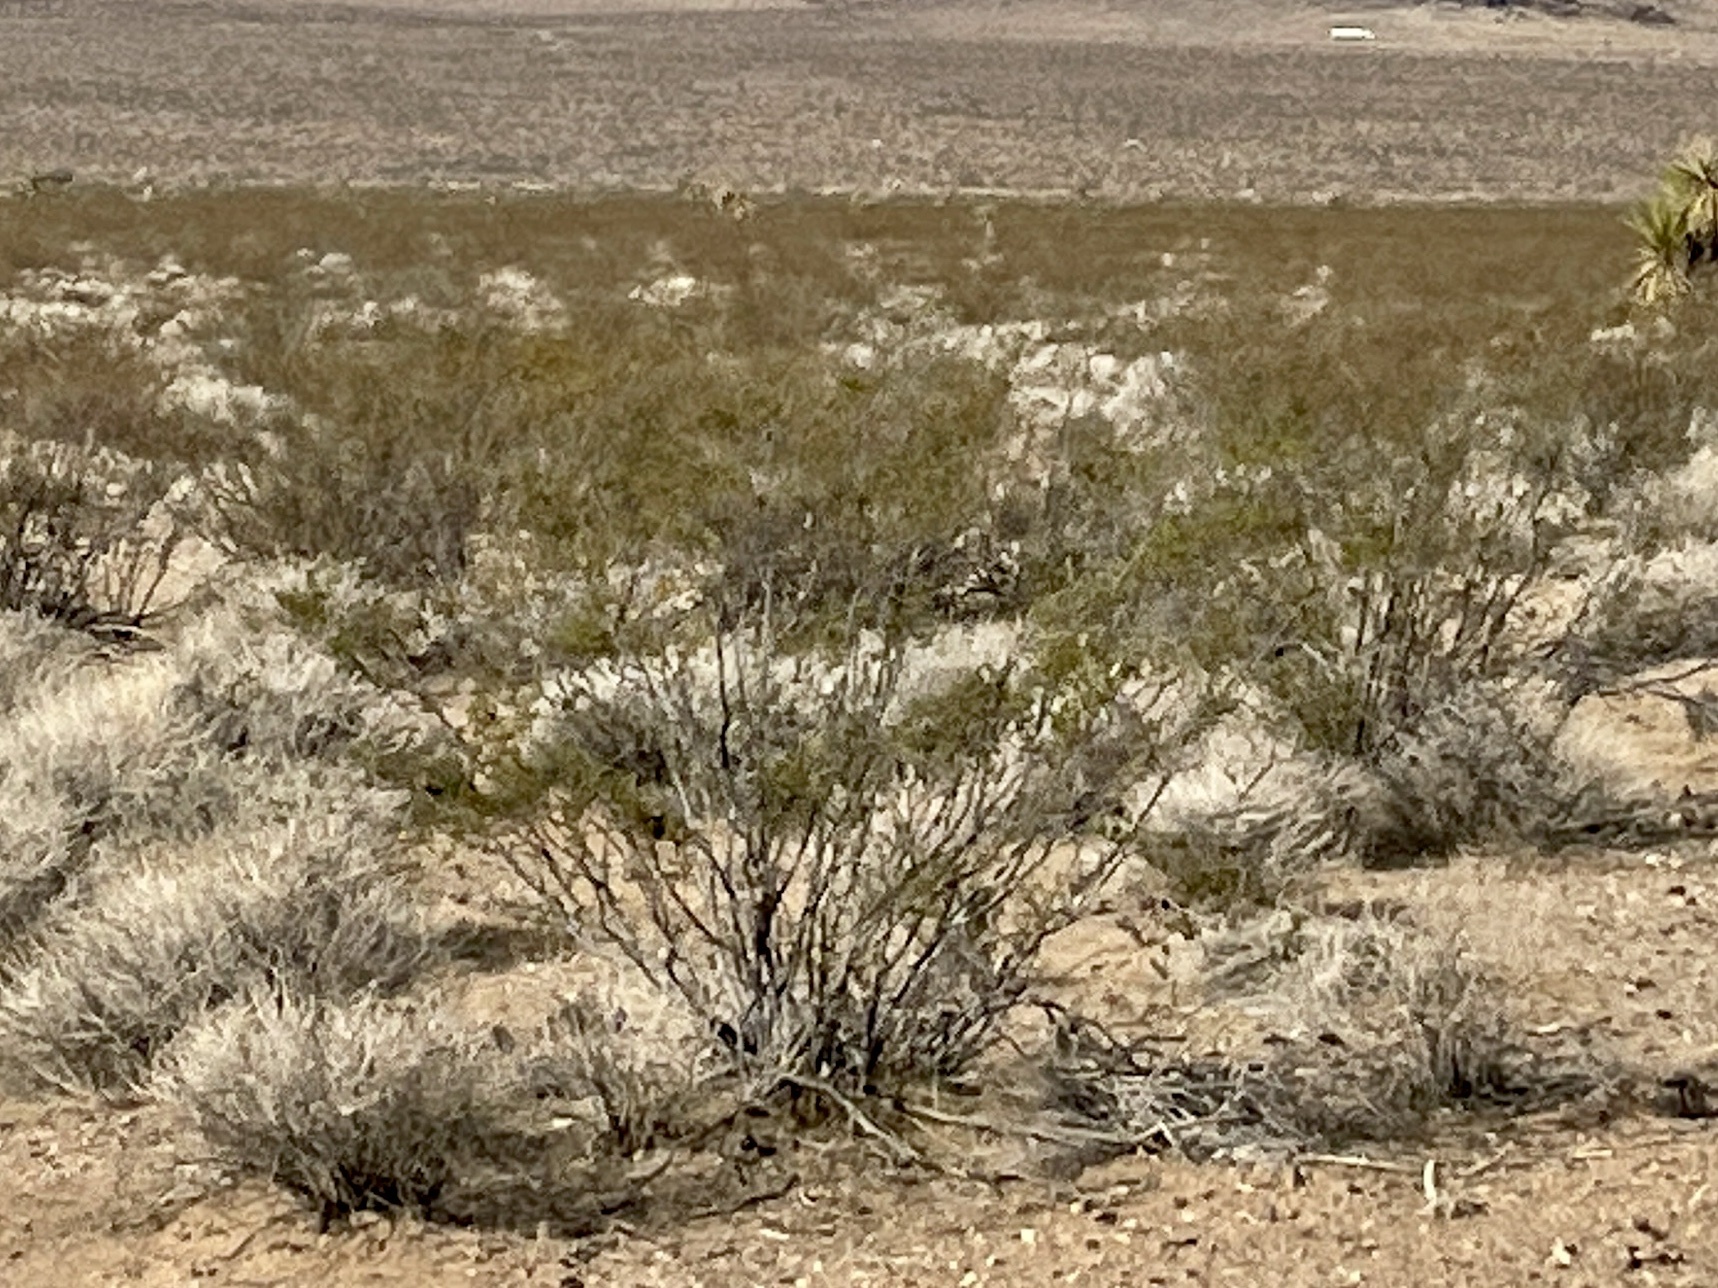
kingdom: Plantae
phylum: Tracheophyta
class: Magnoliopsida
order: Zygophyllales
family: Zygophyllaceae
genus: Larrea
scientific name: Larrea tridentata
